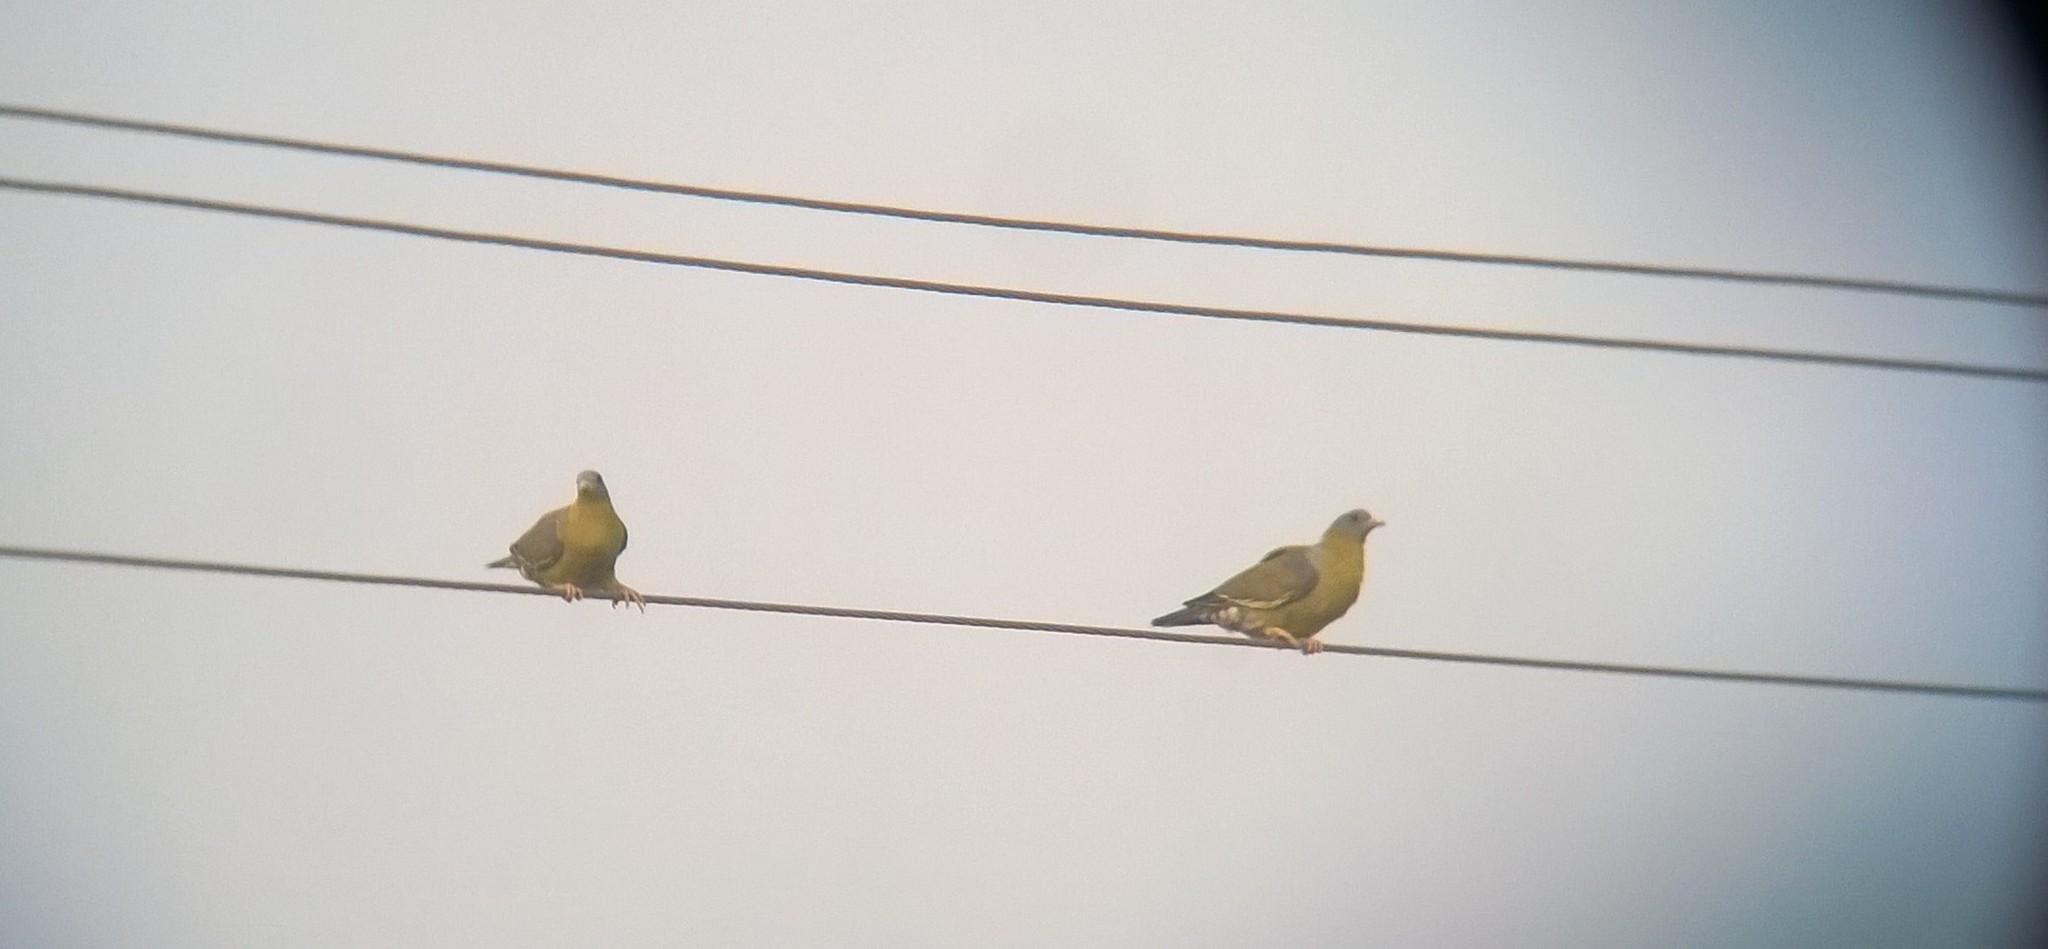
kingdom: Animalia
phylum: Chordata
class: Aves
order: Columbiformes
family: Columbidae
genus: Treron
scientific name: Treron phoenicopterus
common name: Yellow-footed green pigeon
